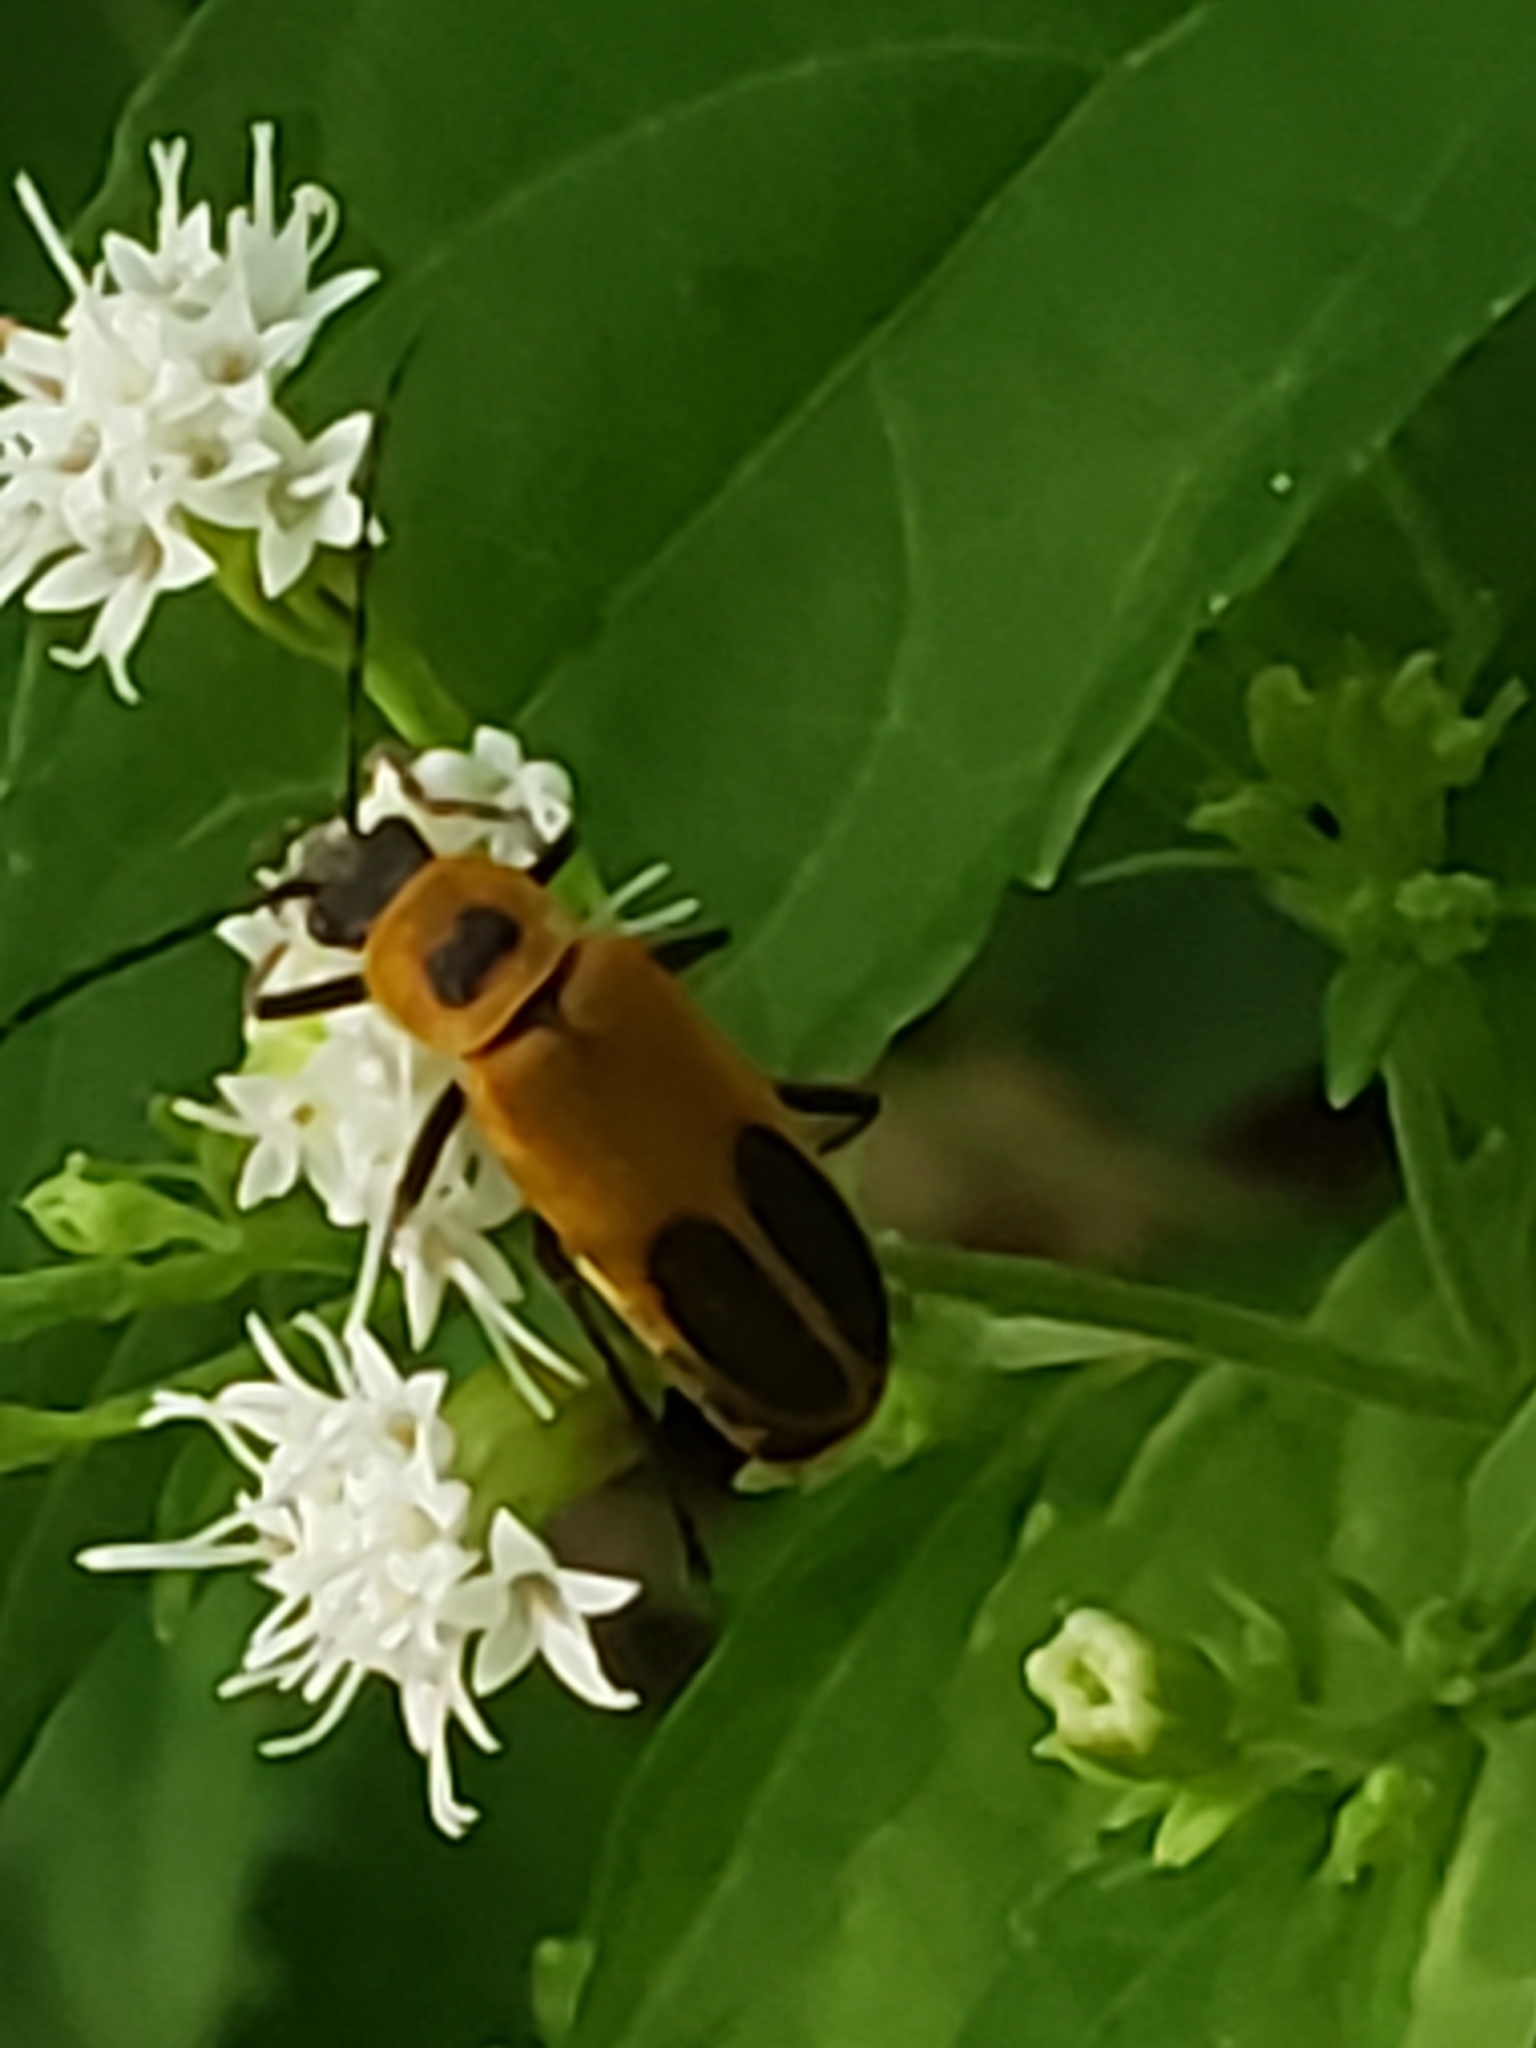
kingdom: Animalia
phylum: Arthropoda
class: Insecta
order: Coleoptera
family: Cantharidae
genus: Chauliognathus
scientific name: Chauliognathus pensylvanicus
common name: Goldenrod soldier beetle
